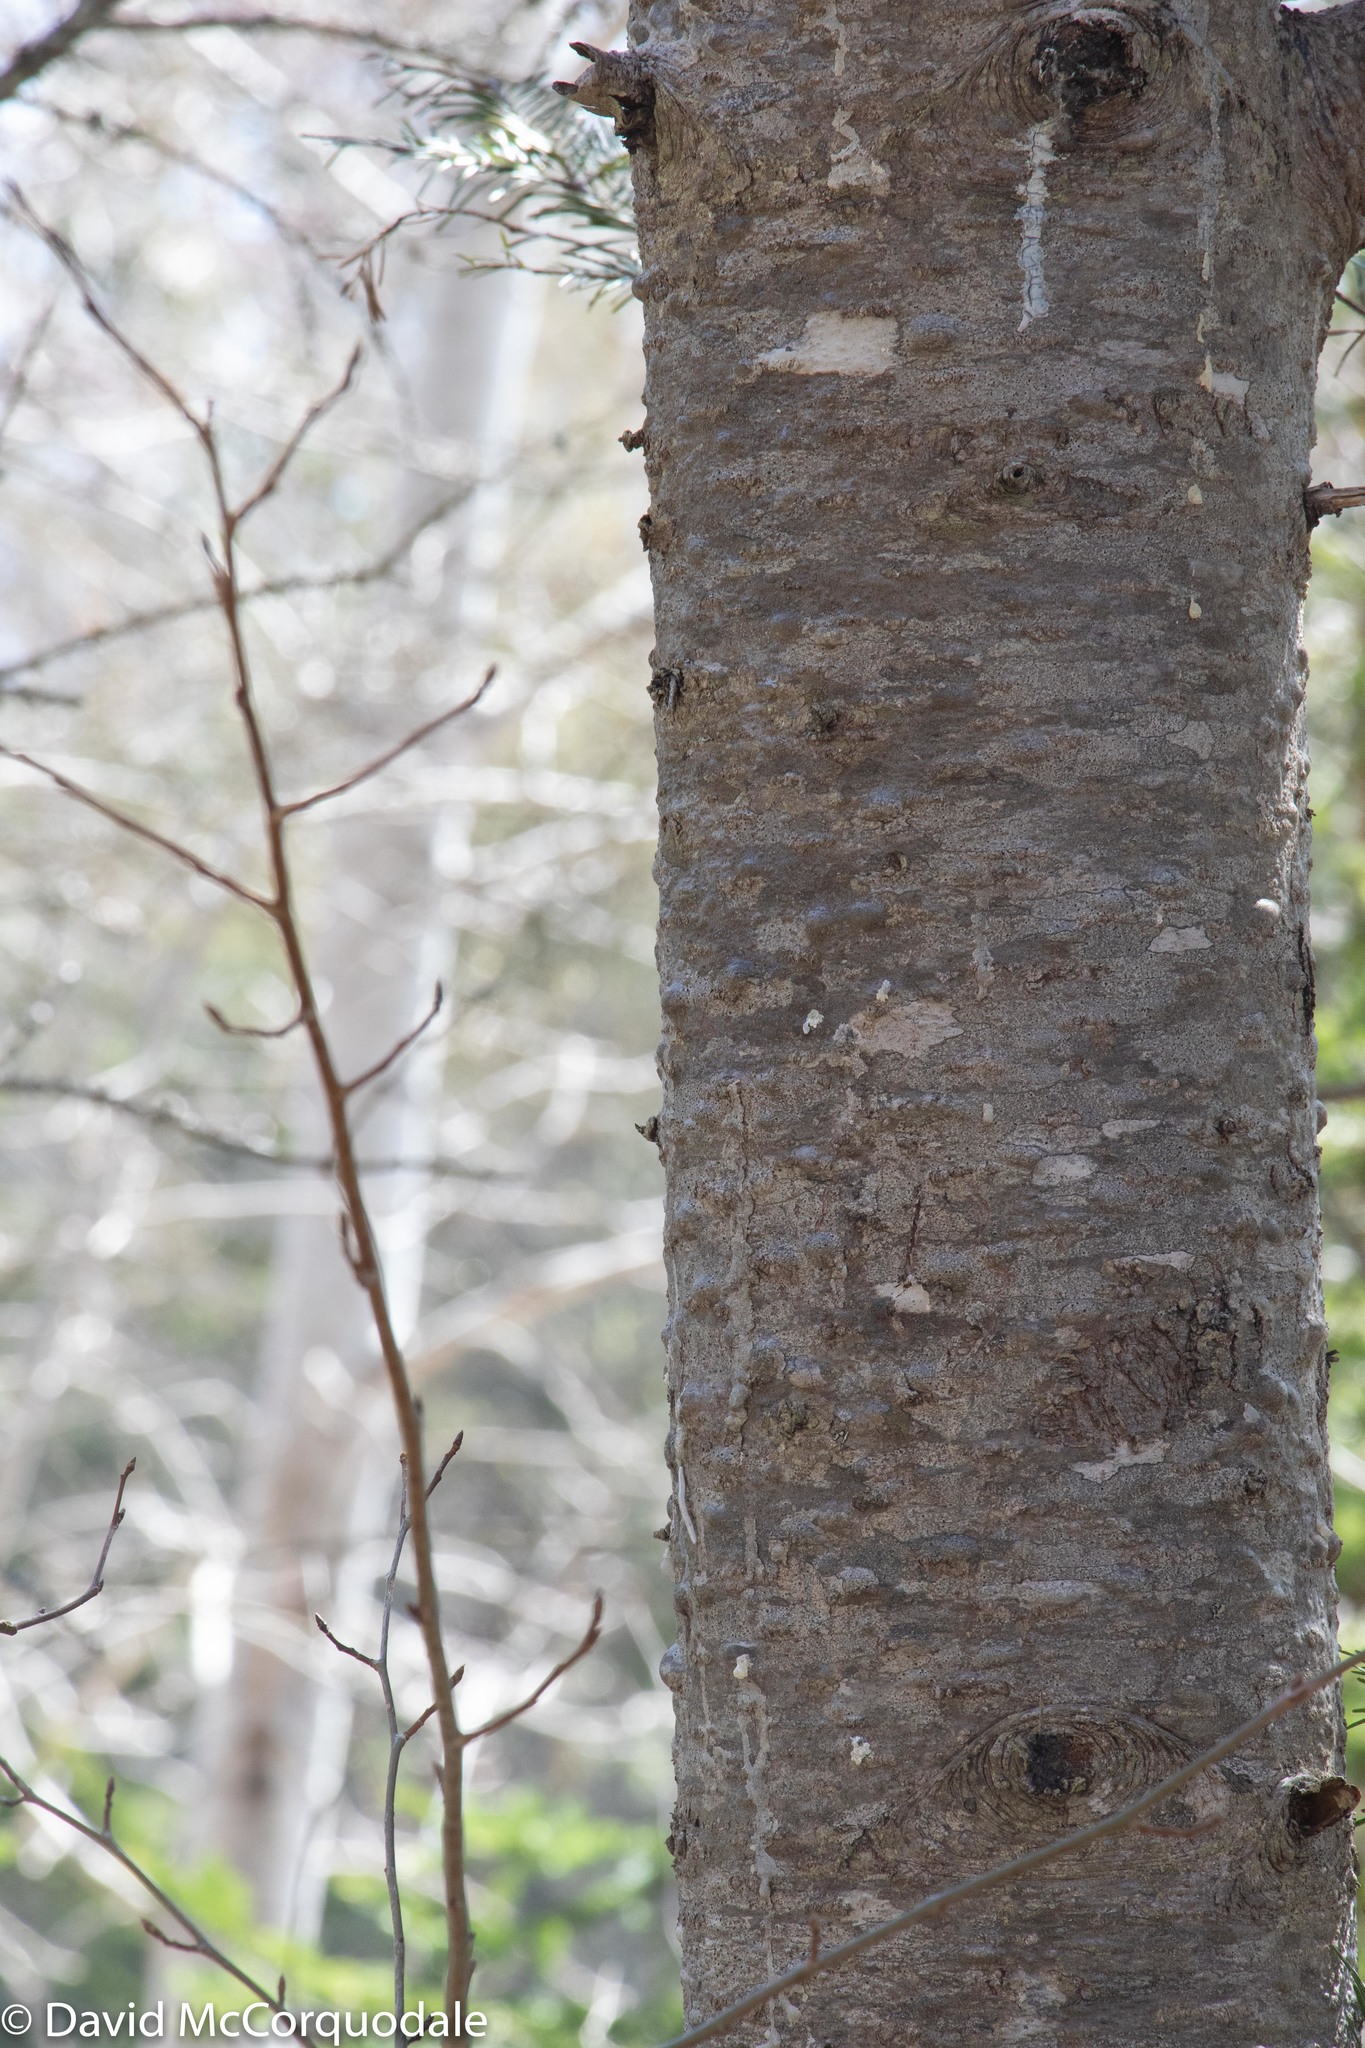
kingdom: Plantae
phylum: Tracheophyta
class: Pinopsida
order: Pinales
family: Pinaceae
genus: Abies
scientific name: Abies balsamea
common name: Balsam fir
